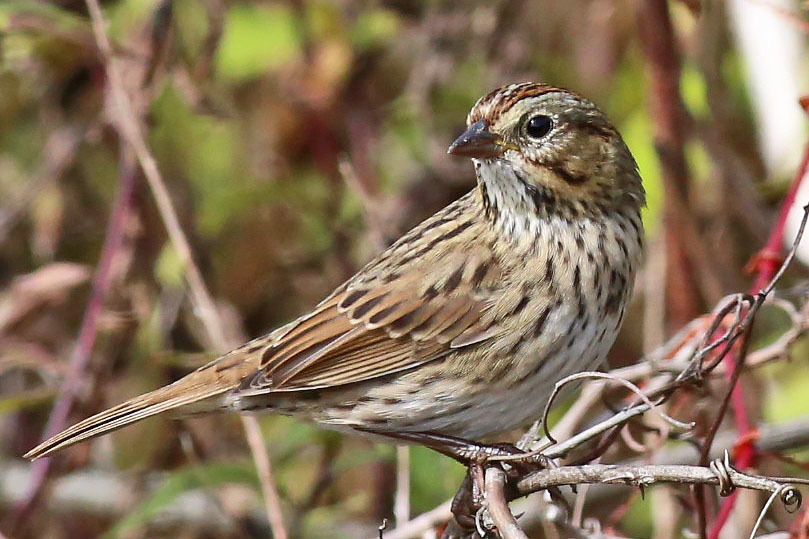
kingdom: Animalia
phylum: Chordata
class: Aves
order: Passeriformes
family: Passerellidae
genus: Melospiza
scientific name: Melospiza lincolnii
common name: Lincoln's sparrow
